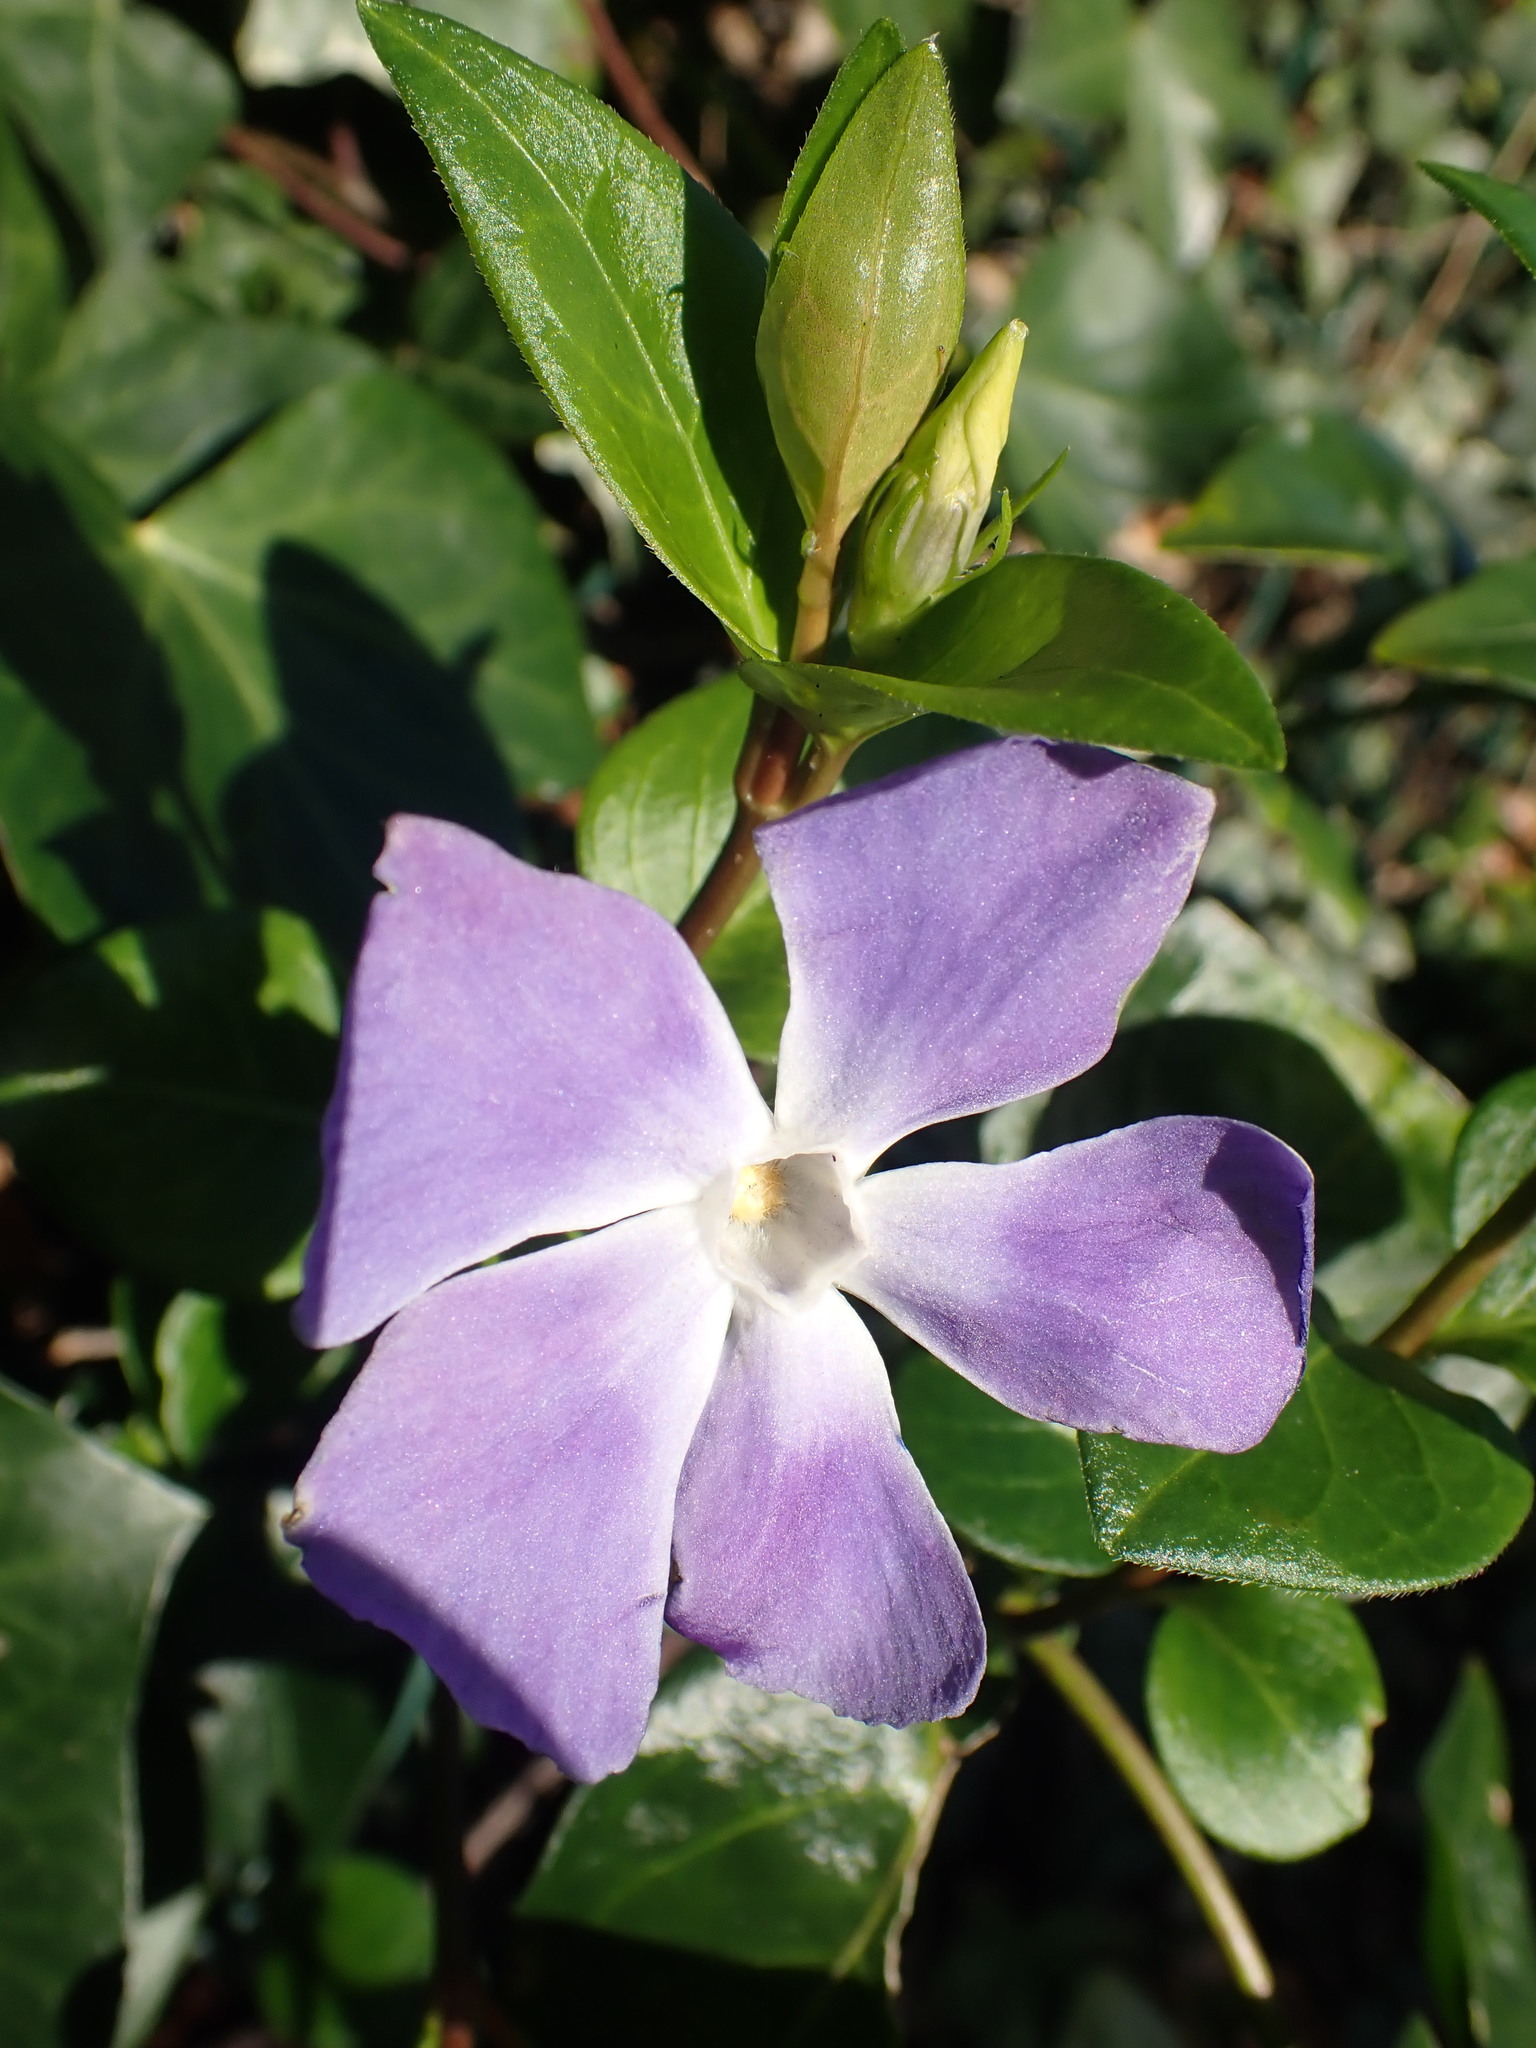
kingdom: Plantae
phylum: Tracheophyta
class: Magnoliopsida
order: Gentianales
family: Apocynaceae
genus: Vinca
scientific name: Vinca major
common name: Greater periwinkle
